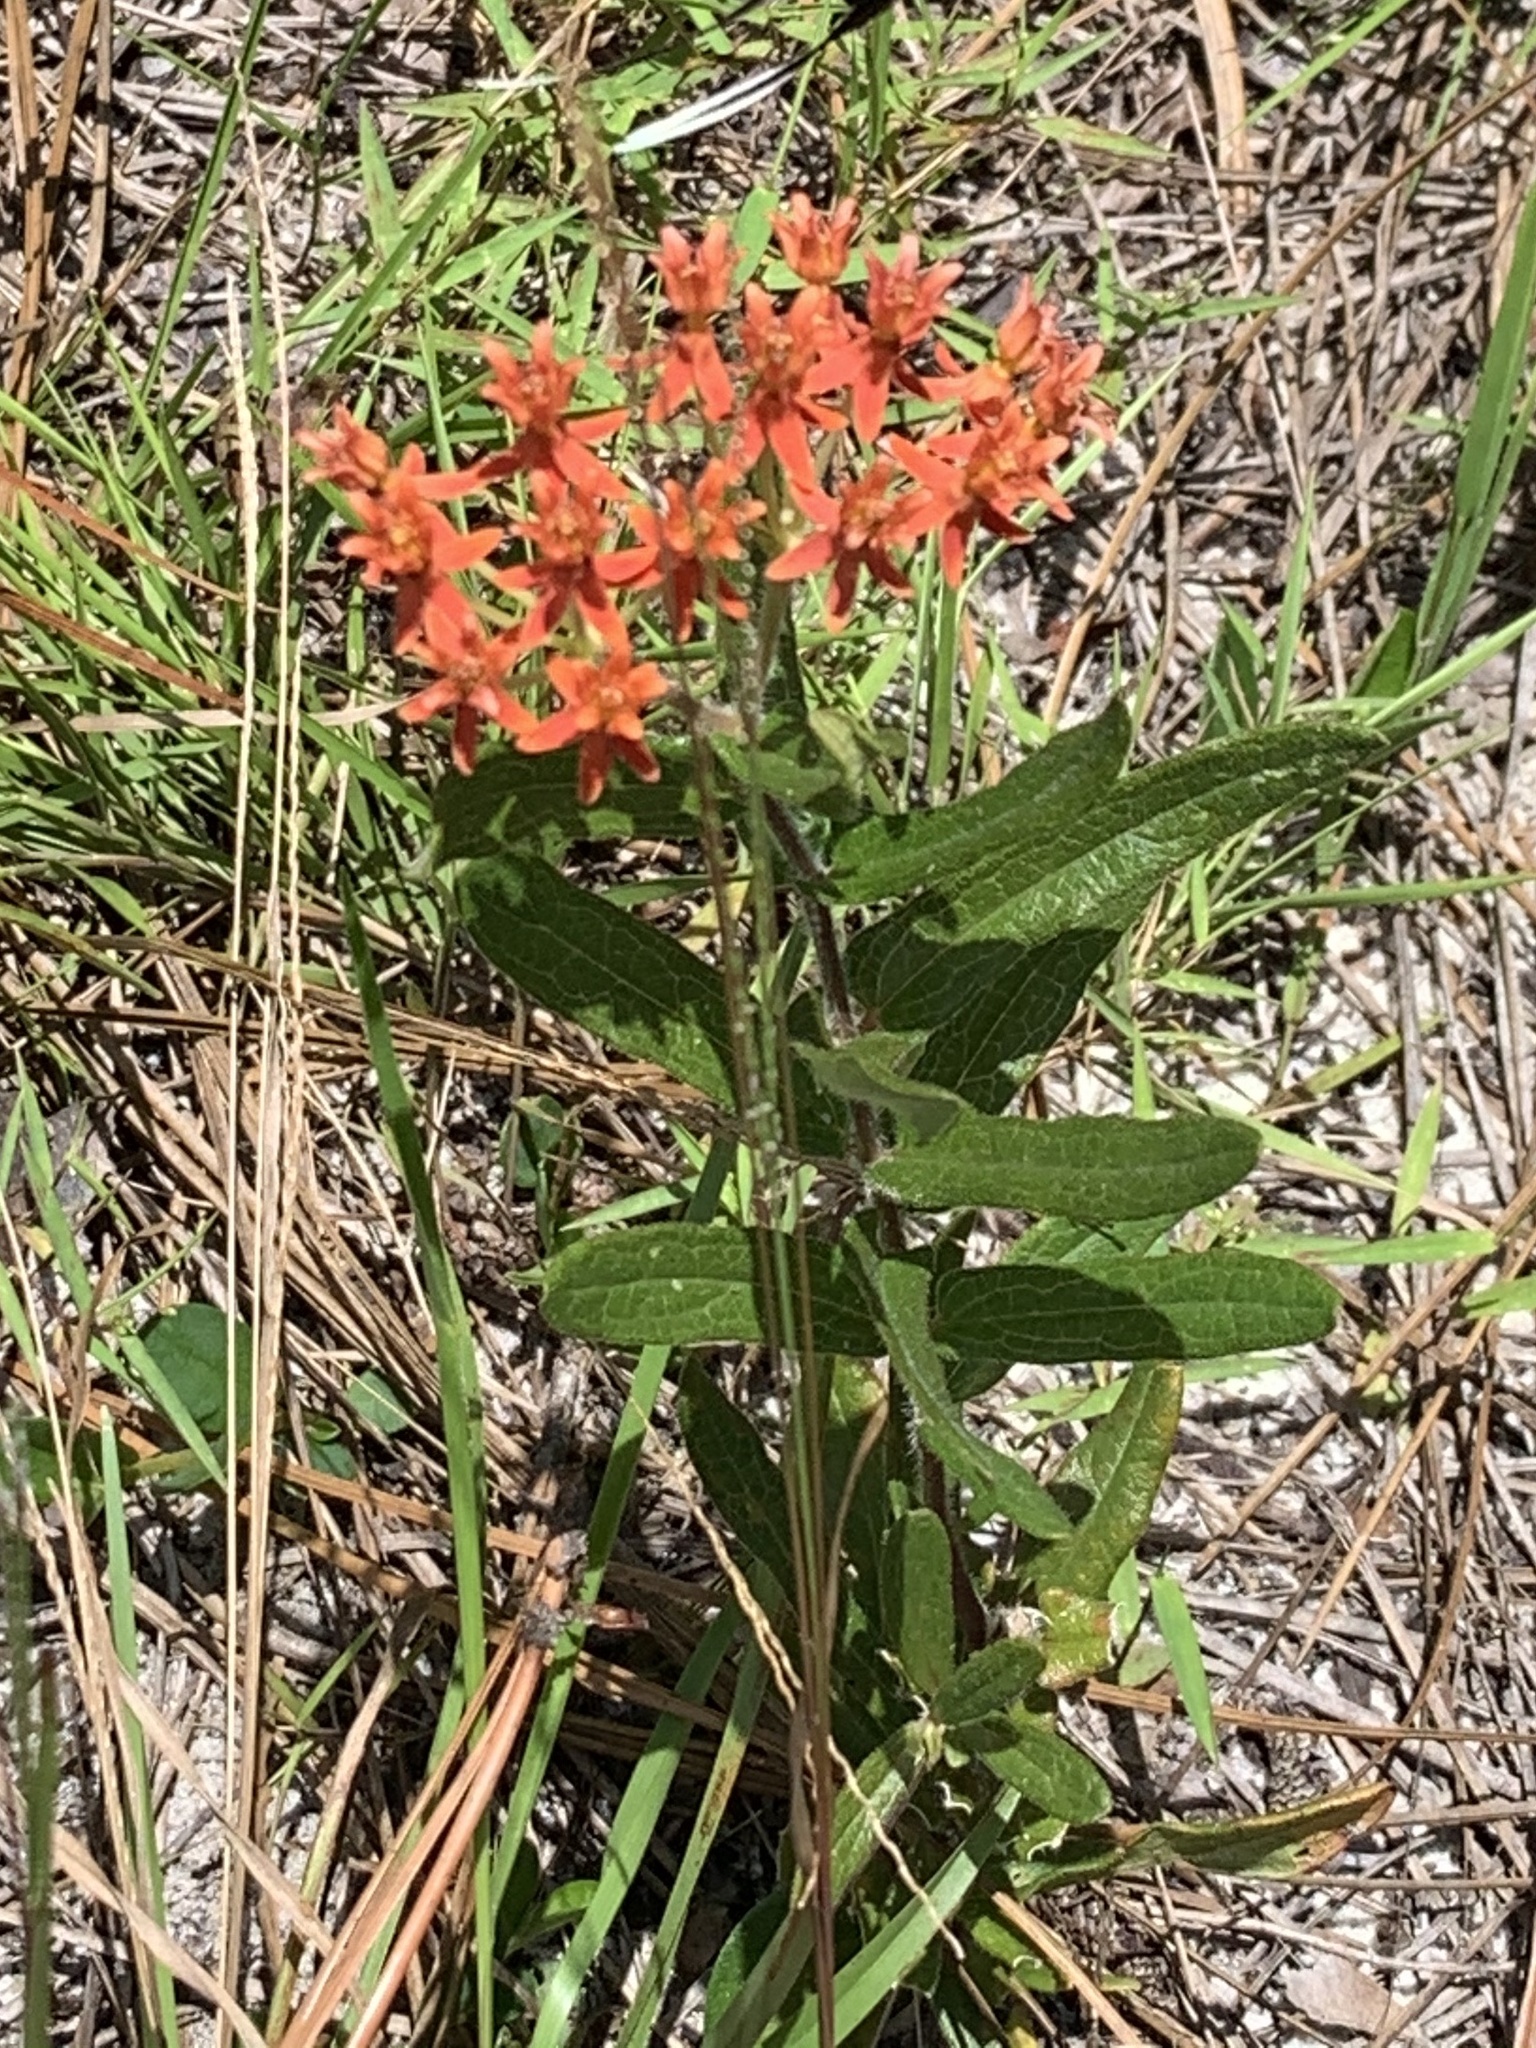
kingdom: Plantae
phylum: Tracheophyta
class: Magnoliopsida
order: Gentianales
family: Apocynaceae
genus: Asclepias
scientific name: Asclepias tuberosa
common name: Butterfly milkweed
